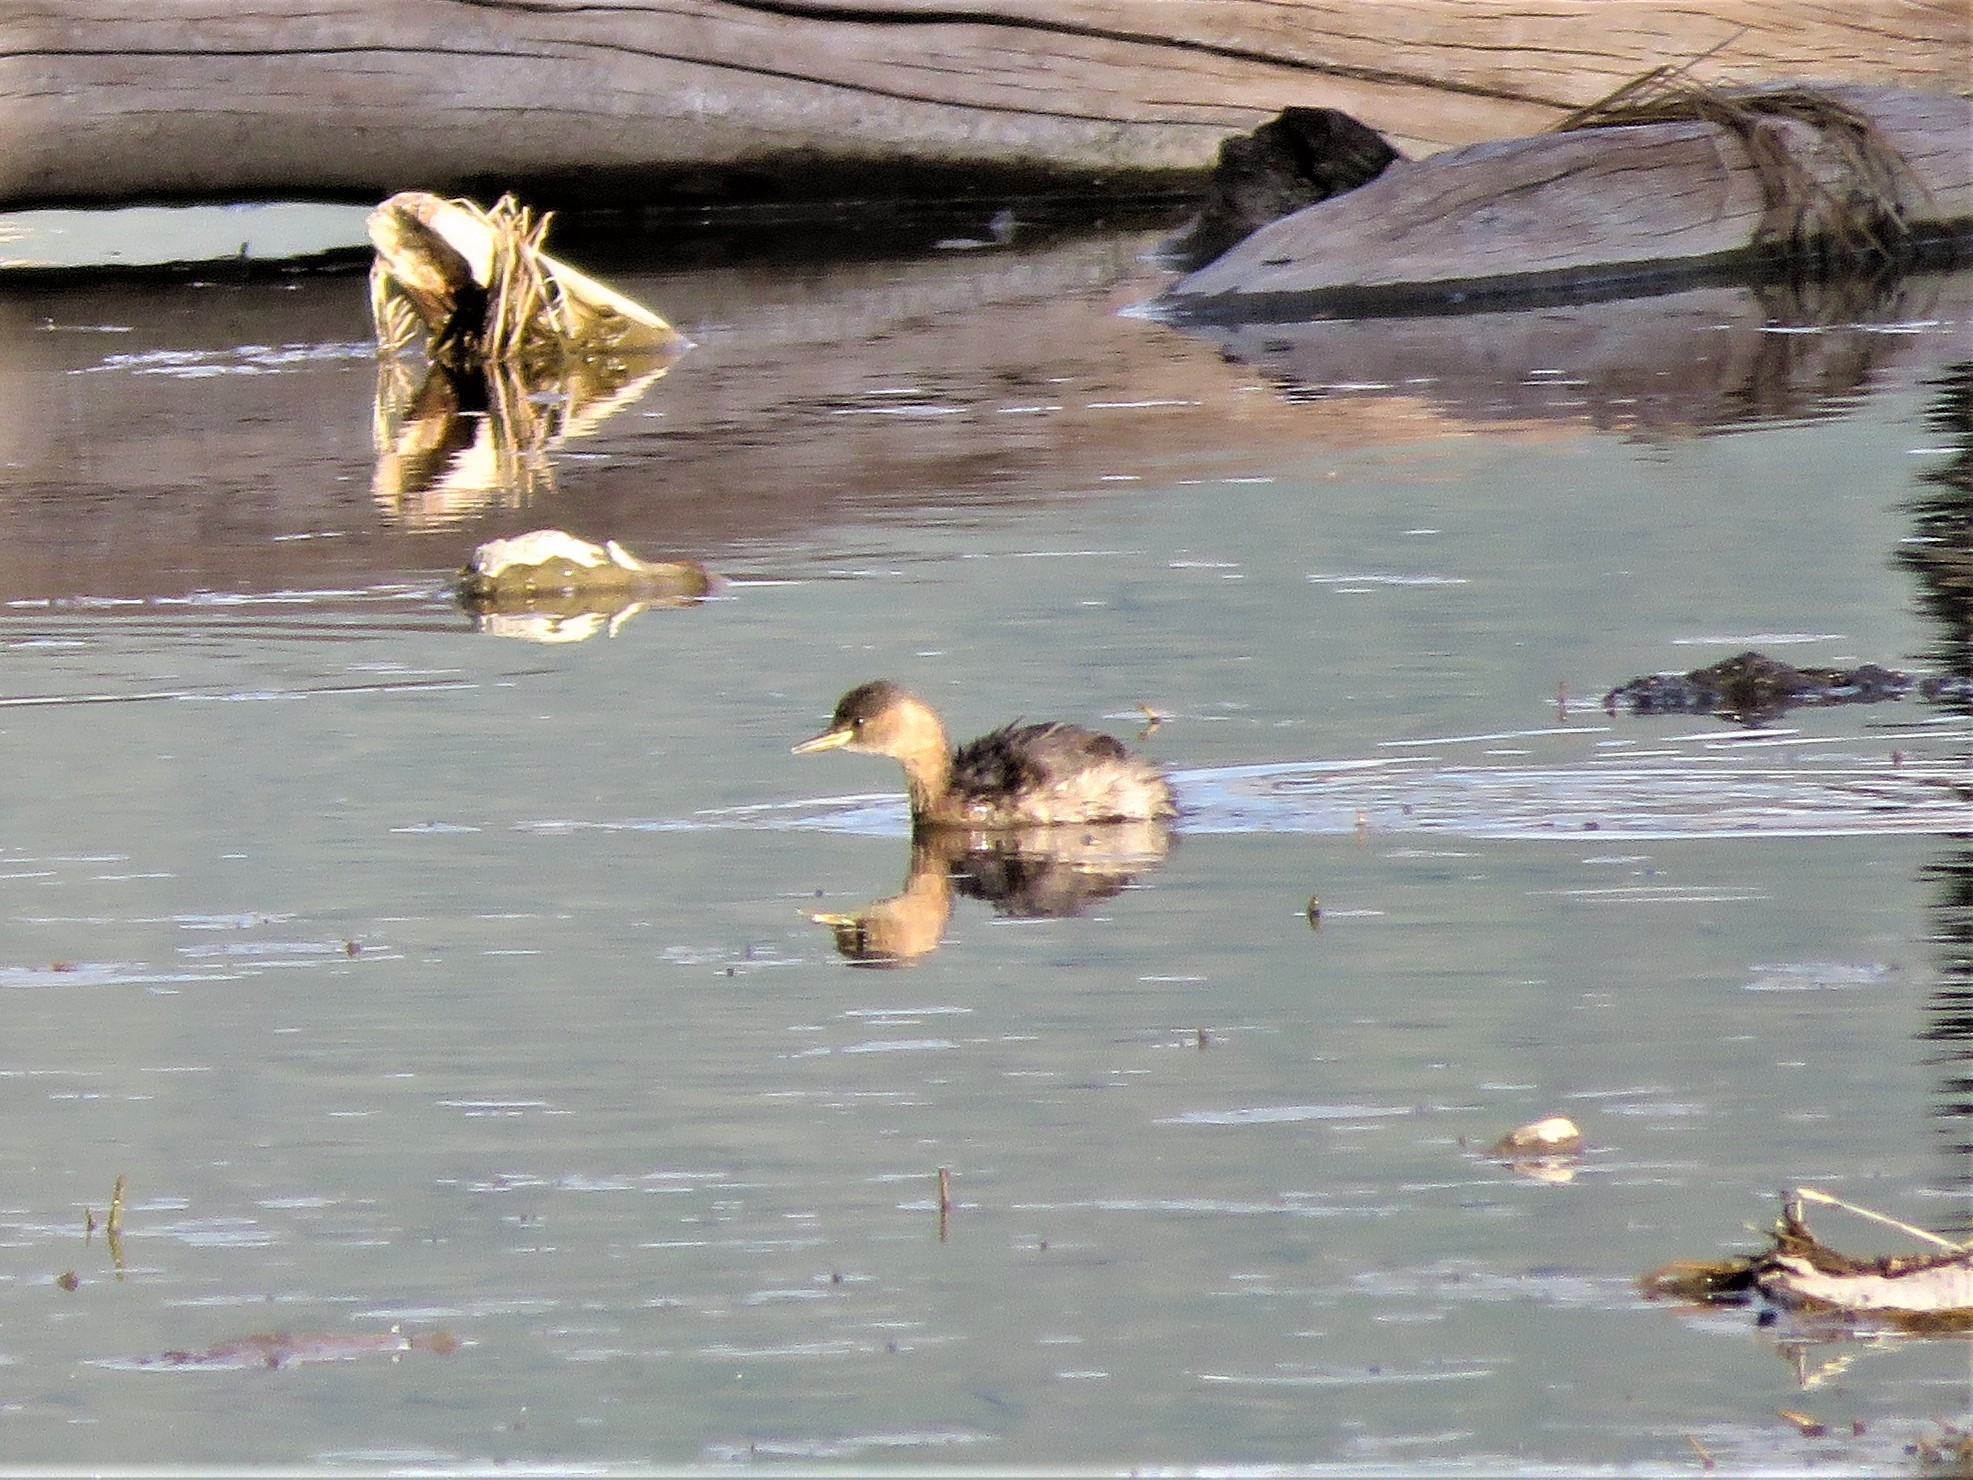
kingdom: Animalia
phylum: Chordata
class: Aves
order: Podicipediformes
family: Podicipedidae
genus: Tachybaptus
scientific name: Tachybaptus ruficollis
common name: Little grebe
